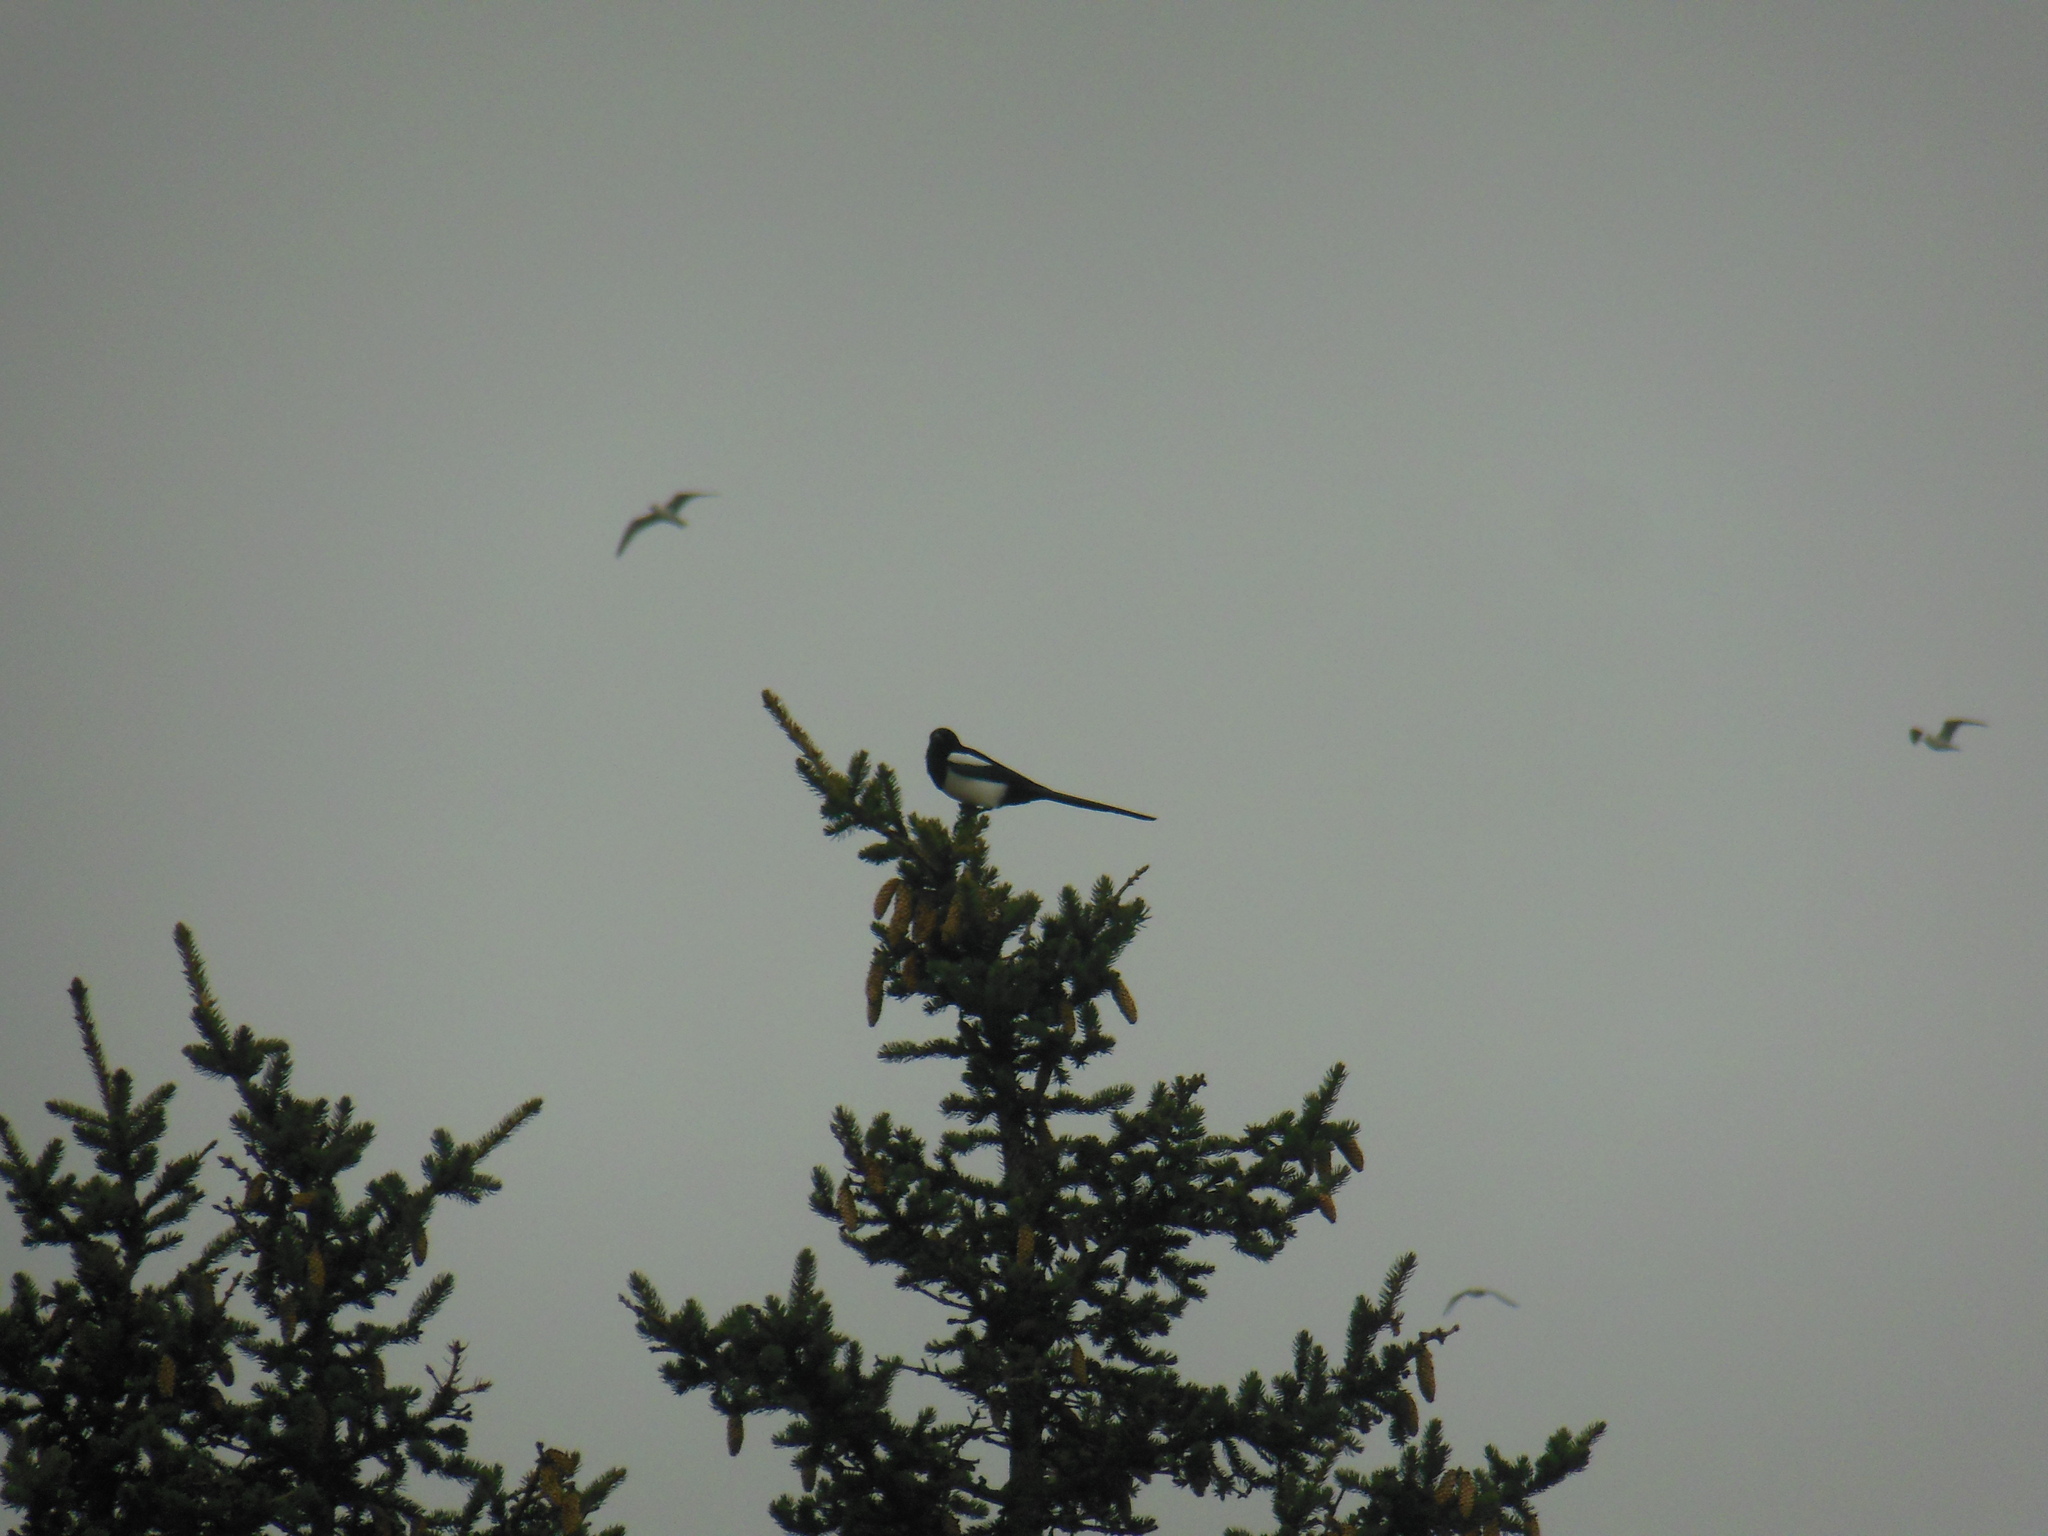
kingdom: Animalia
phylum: Chordata
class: Aves
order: Passeriformes
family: Corvidae
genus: Pica
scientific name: Pica pica
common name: Eurasian magpie
